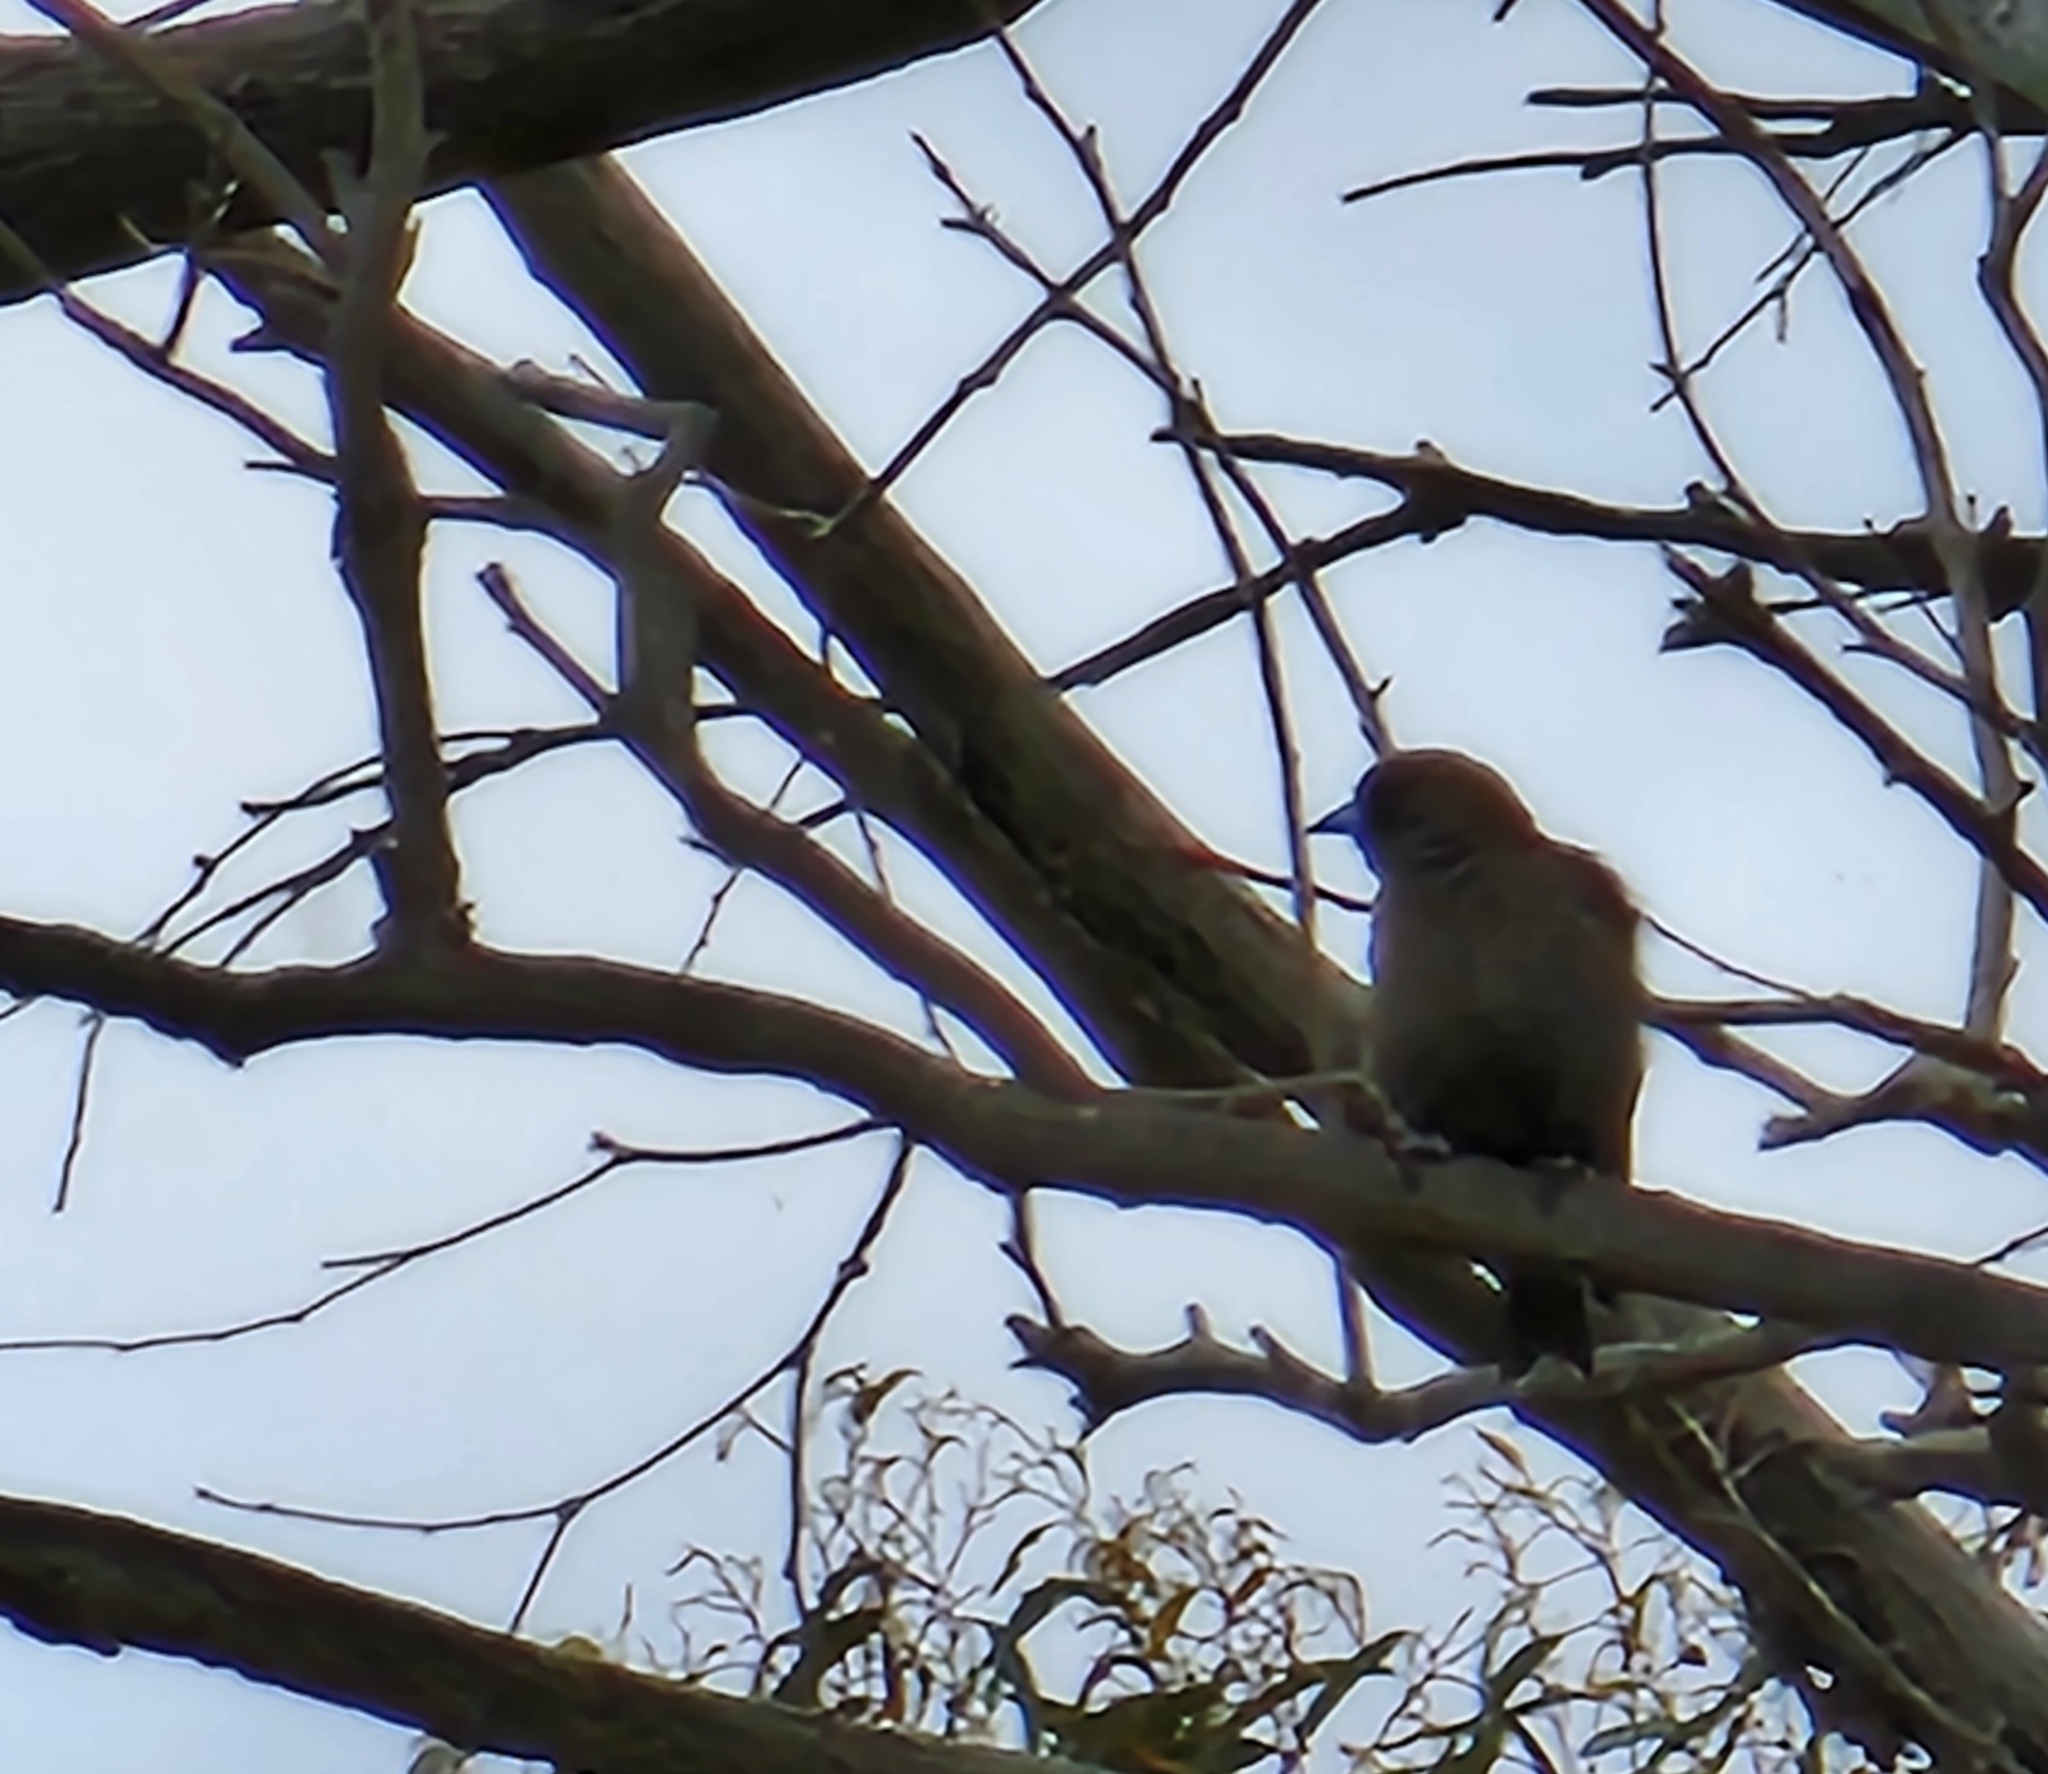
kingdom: Animalia
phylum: Chordata
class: Aves
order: Passeriformes
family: Artamidae
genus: Artamus
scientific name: Artamus cyanopterus
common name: Dusky woodswallow
